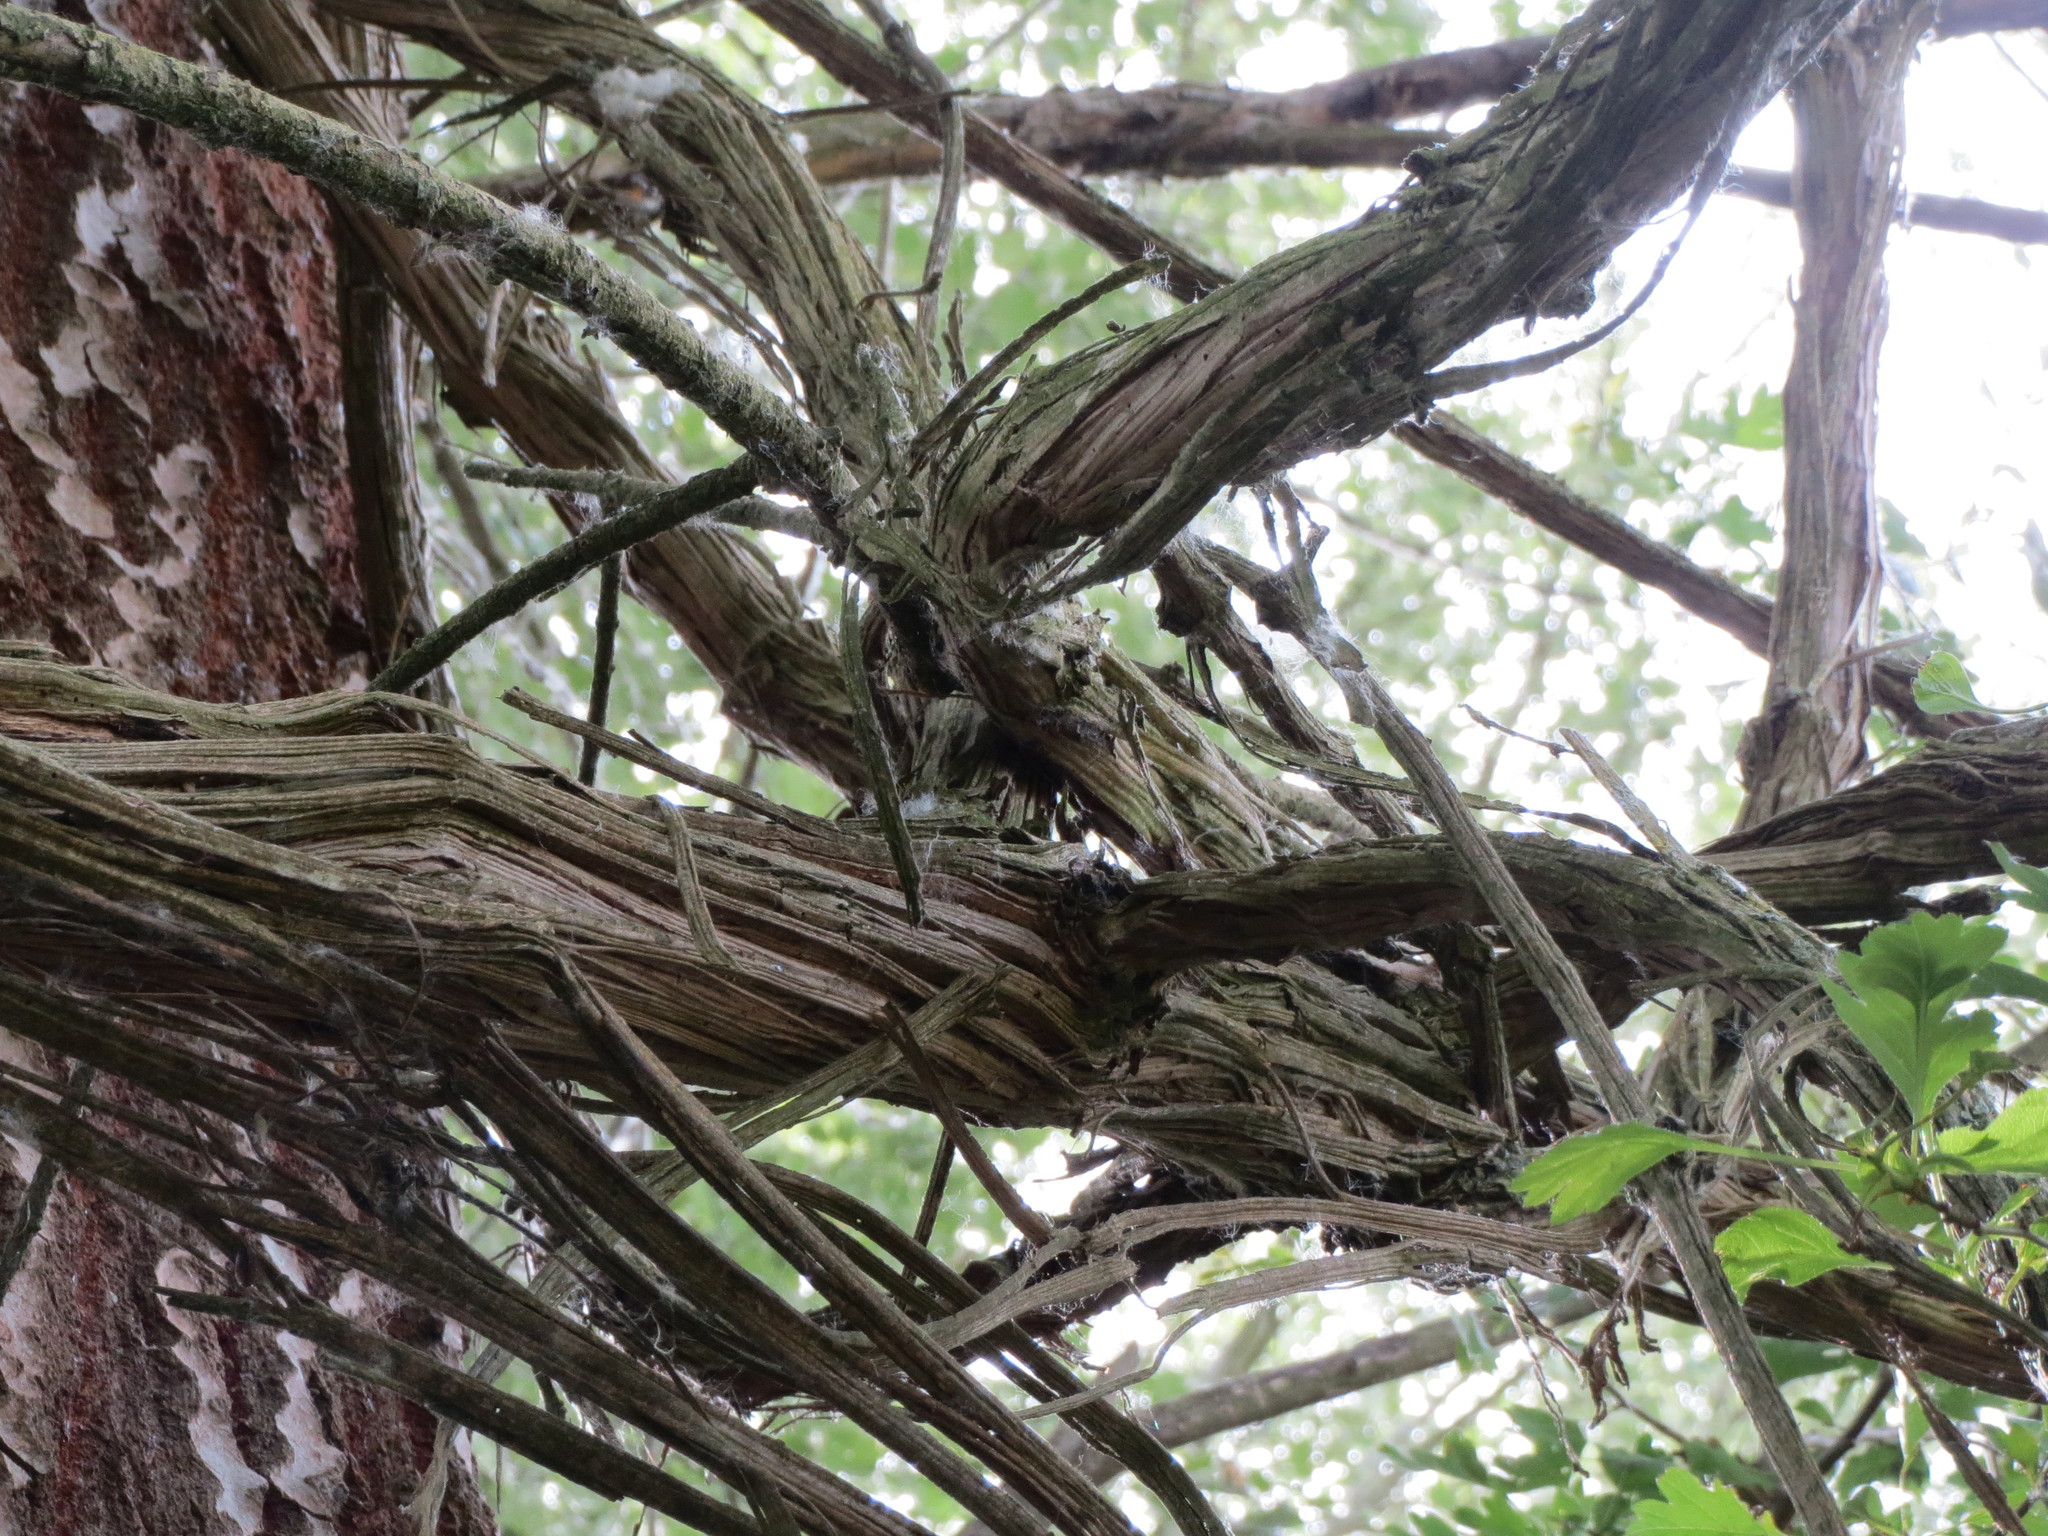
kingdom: Plantae
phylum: Tracheophyta
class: Magnoliopsida
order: Ranunculales
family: Ranunculaceae
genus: Clematis
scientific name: Clematis vitalba
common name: Evergreen clematis
